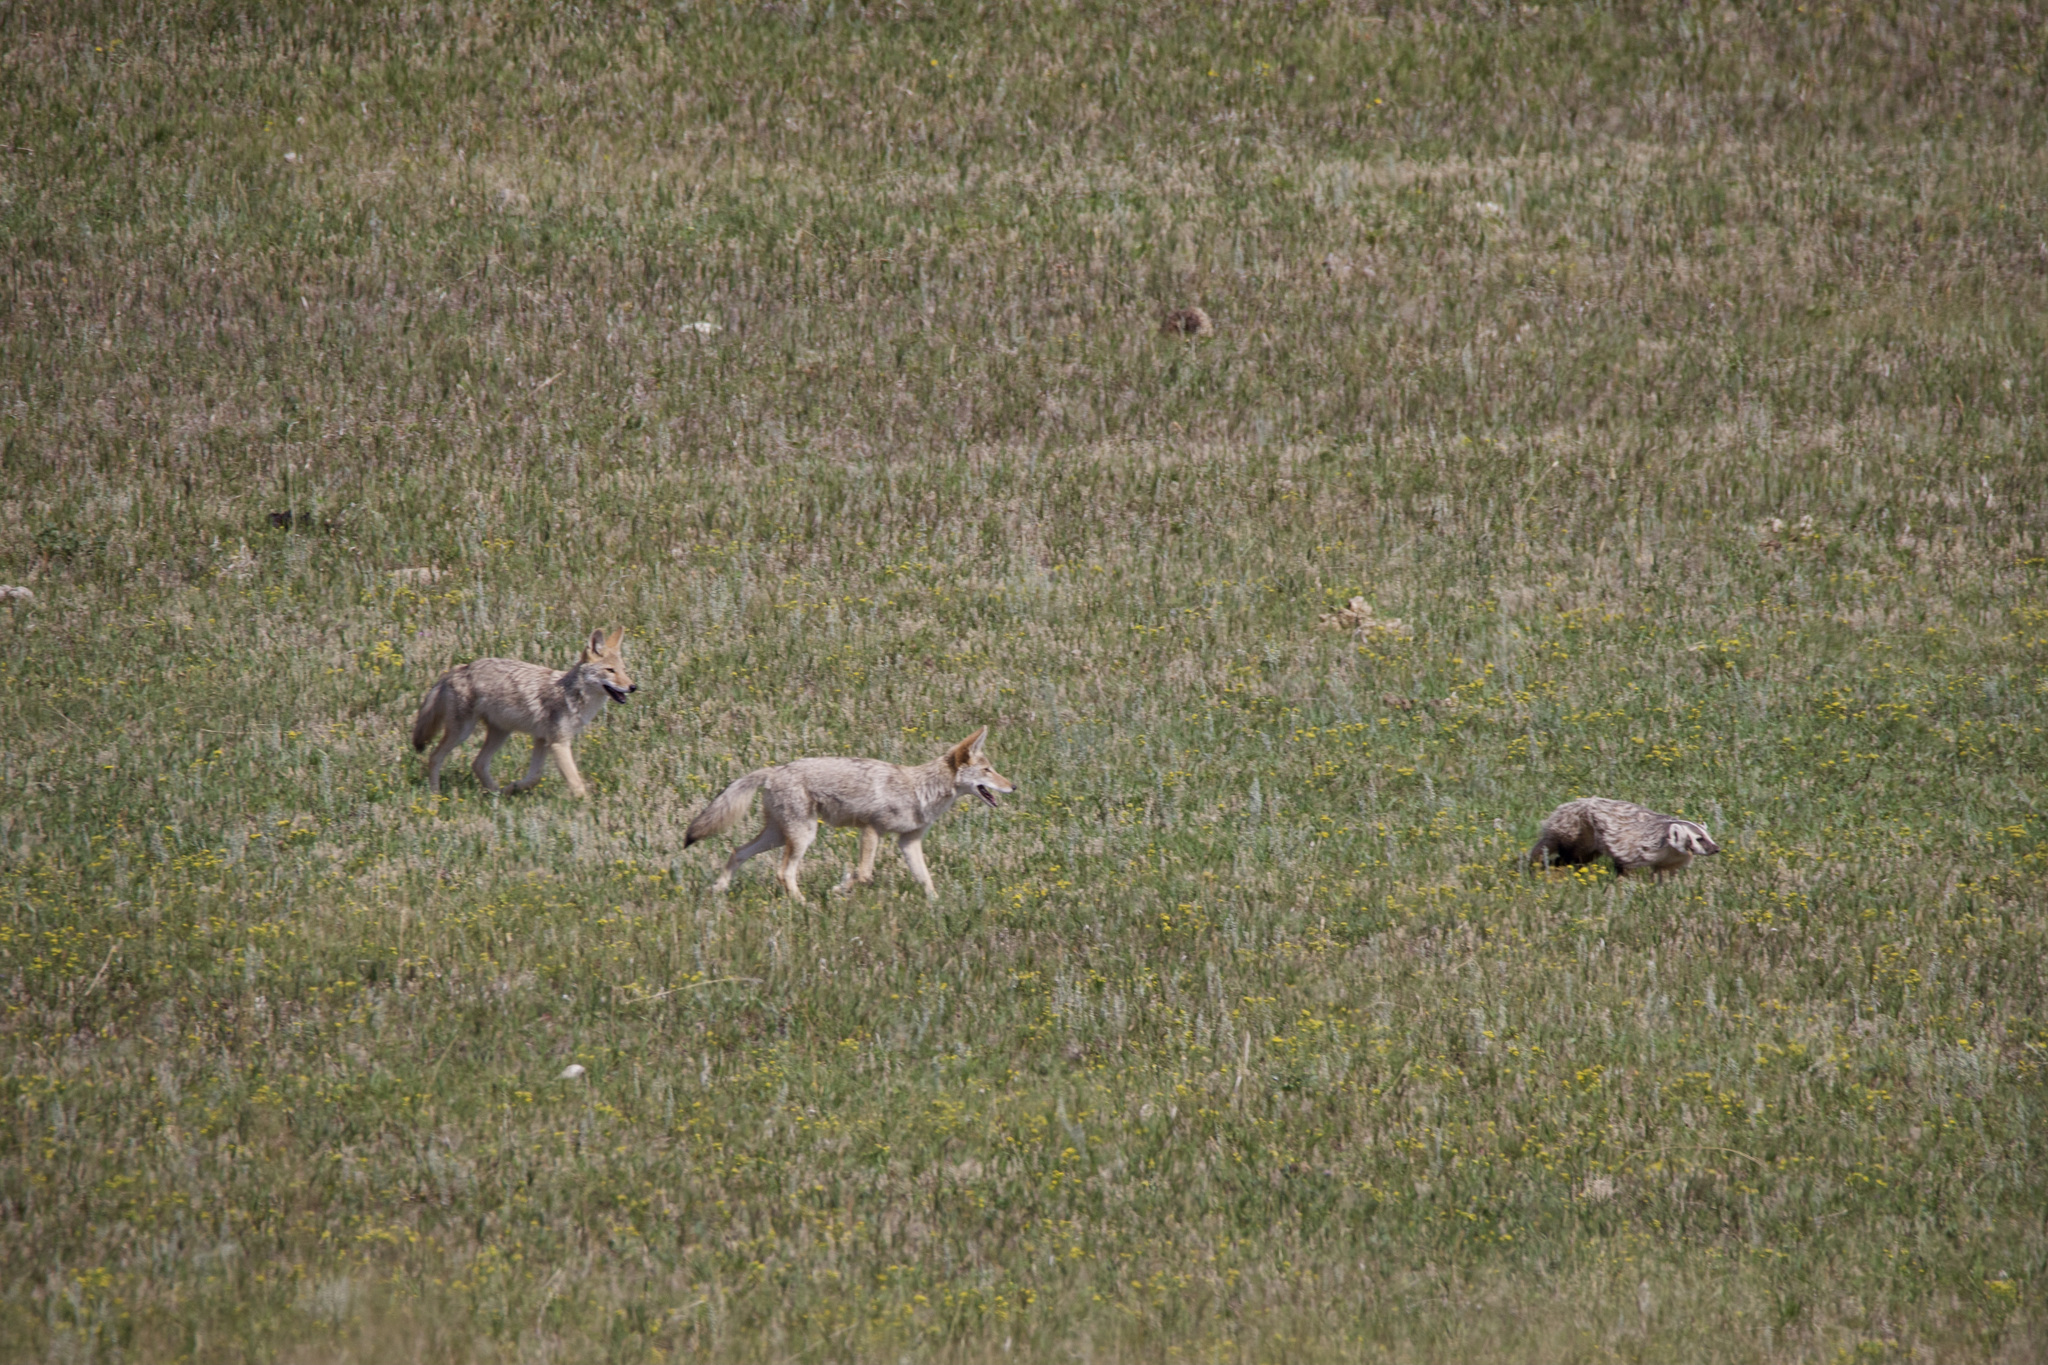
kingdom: Animalia
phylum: Chordata
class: Mammalia
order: Carnivora
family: Mustelidae
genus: Taxidea
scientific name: Taxidea taxus
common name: American badger
